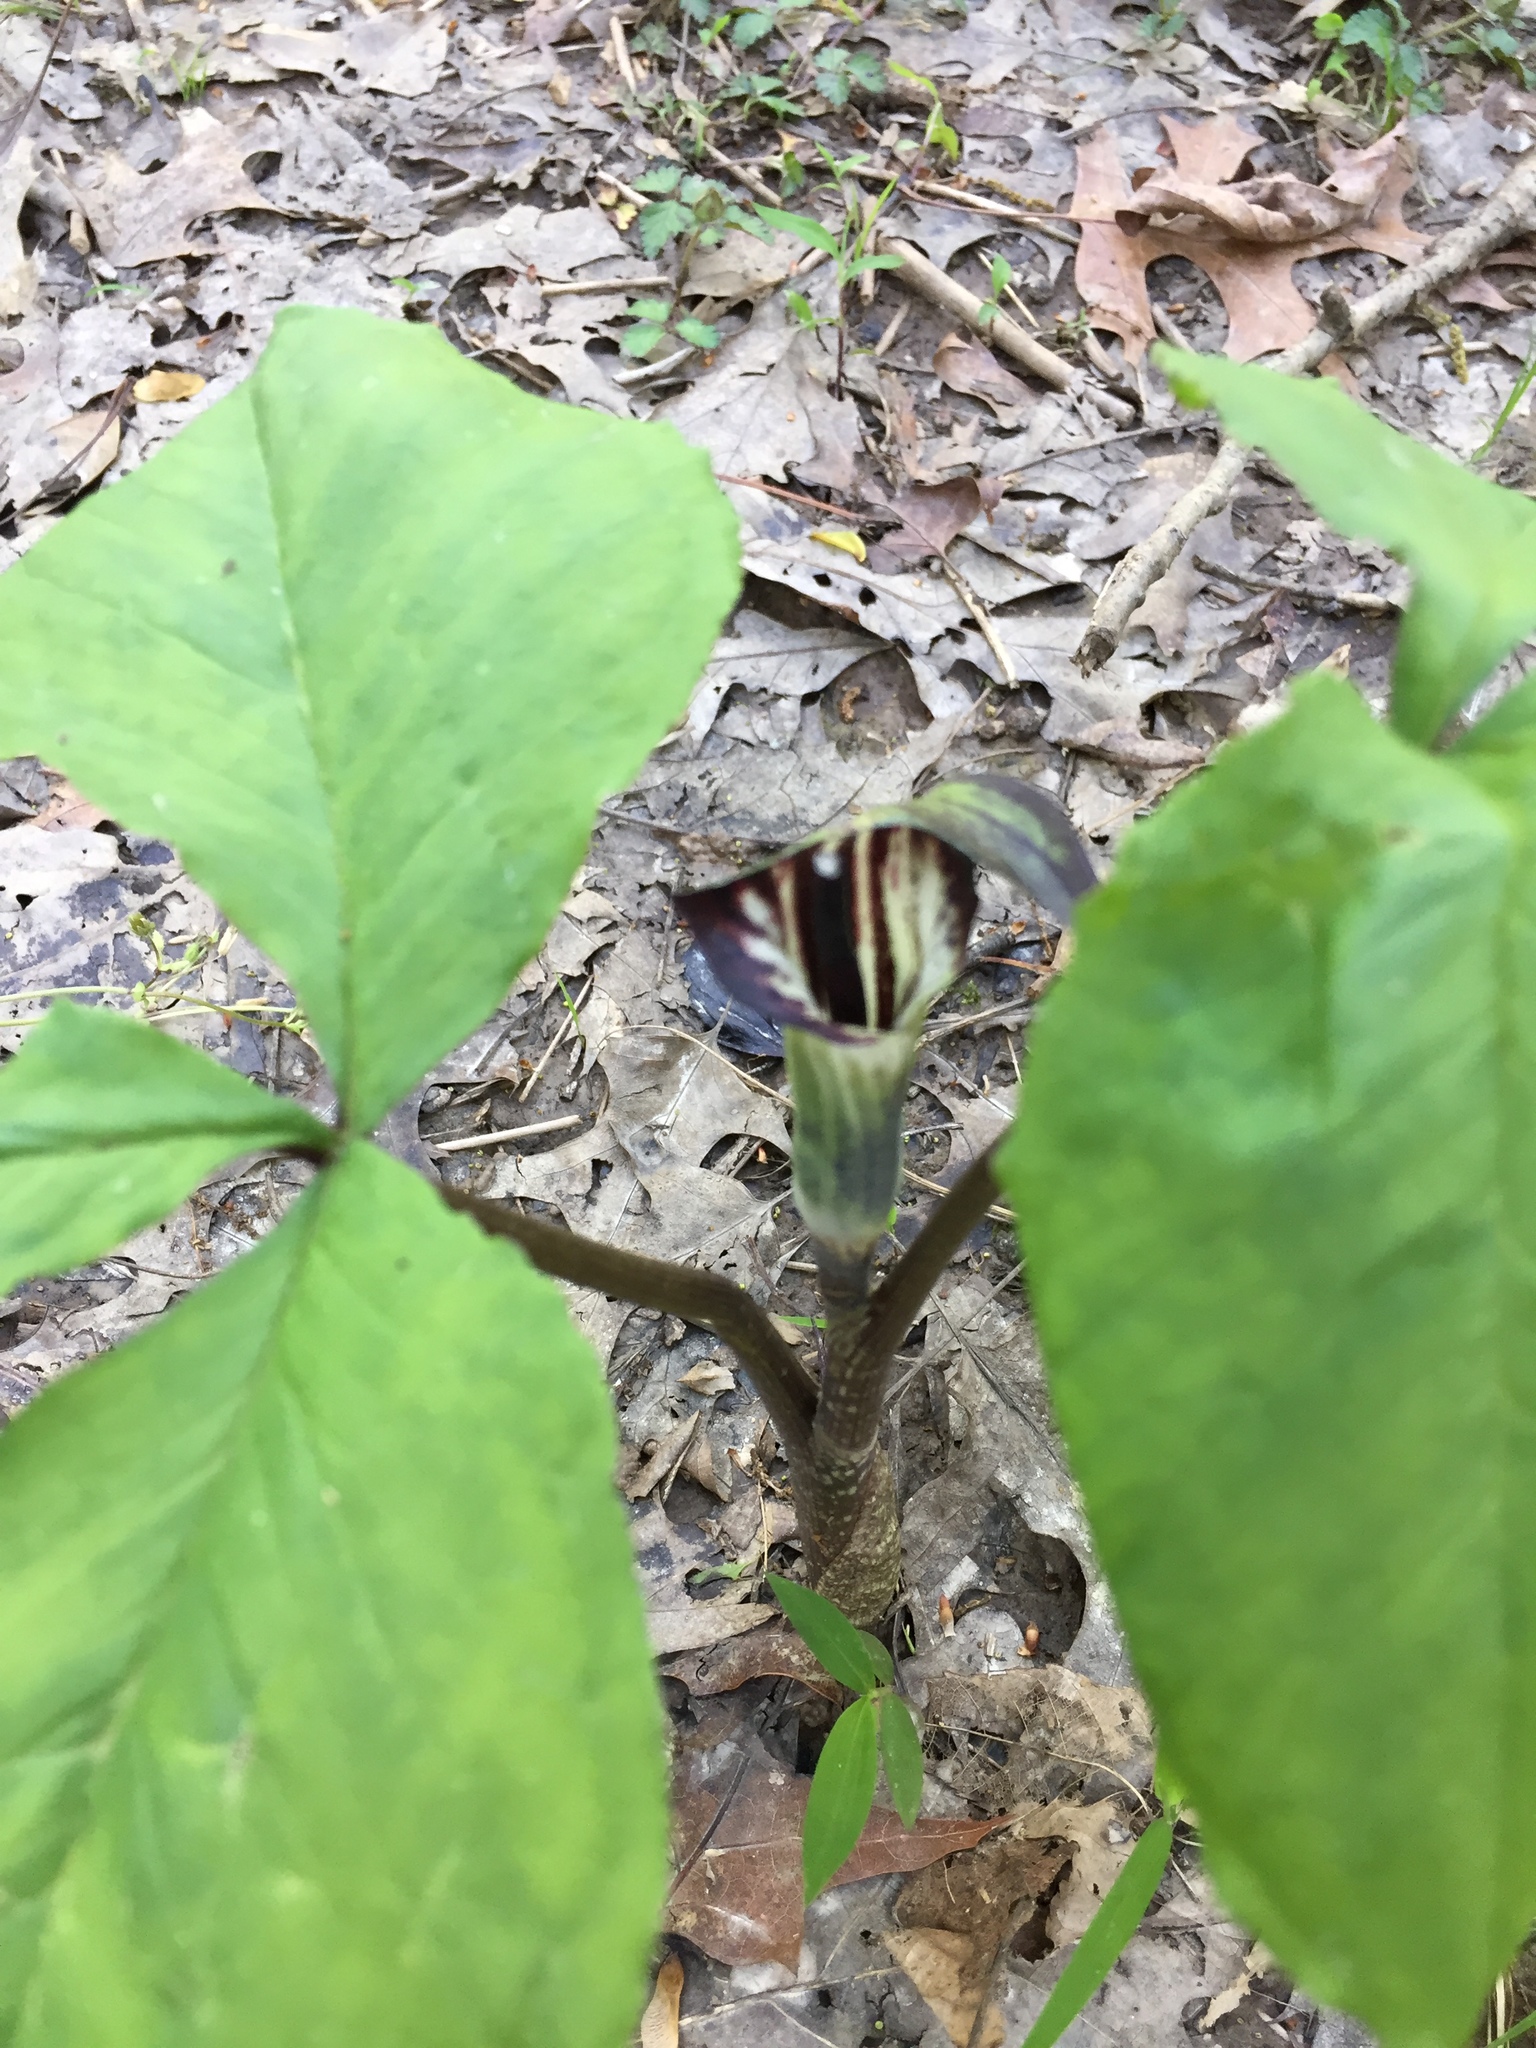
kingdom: Plantae
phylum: Tracheophyta
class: Liliopsida
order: Alismatales
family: Araceae
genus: Arisaema
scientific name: Arisaema triphyllum
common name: Jack-in-the-pulpit
